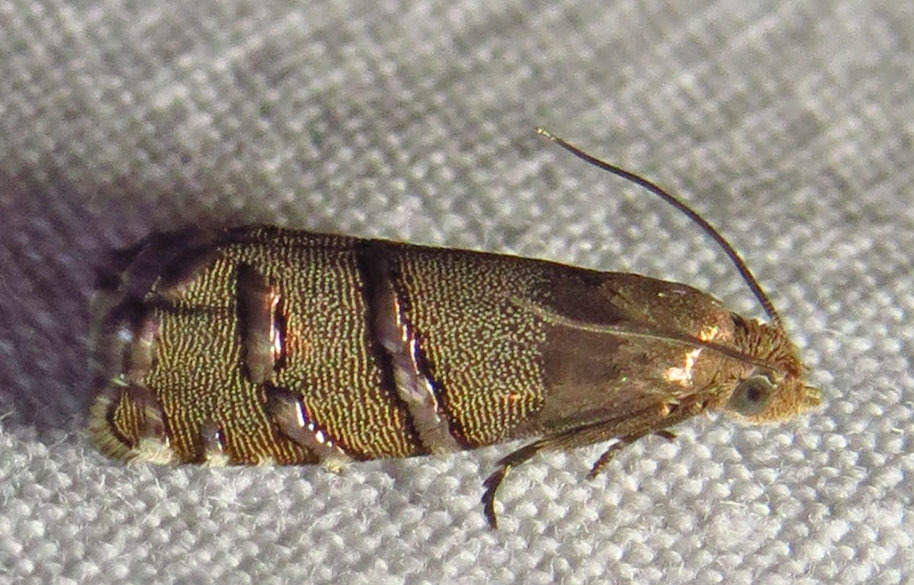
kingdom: Animalia
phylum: Arthropoda
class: Insecta
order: Lepidoptera
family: Tortricidae
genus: Cydia
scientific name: Cydia toreuta
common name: Eastern pine seedworm moth
